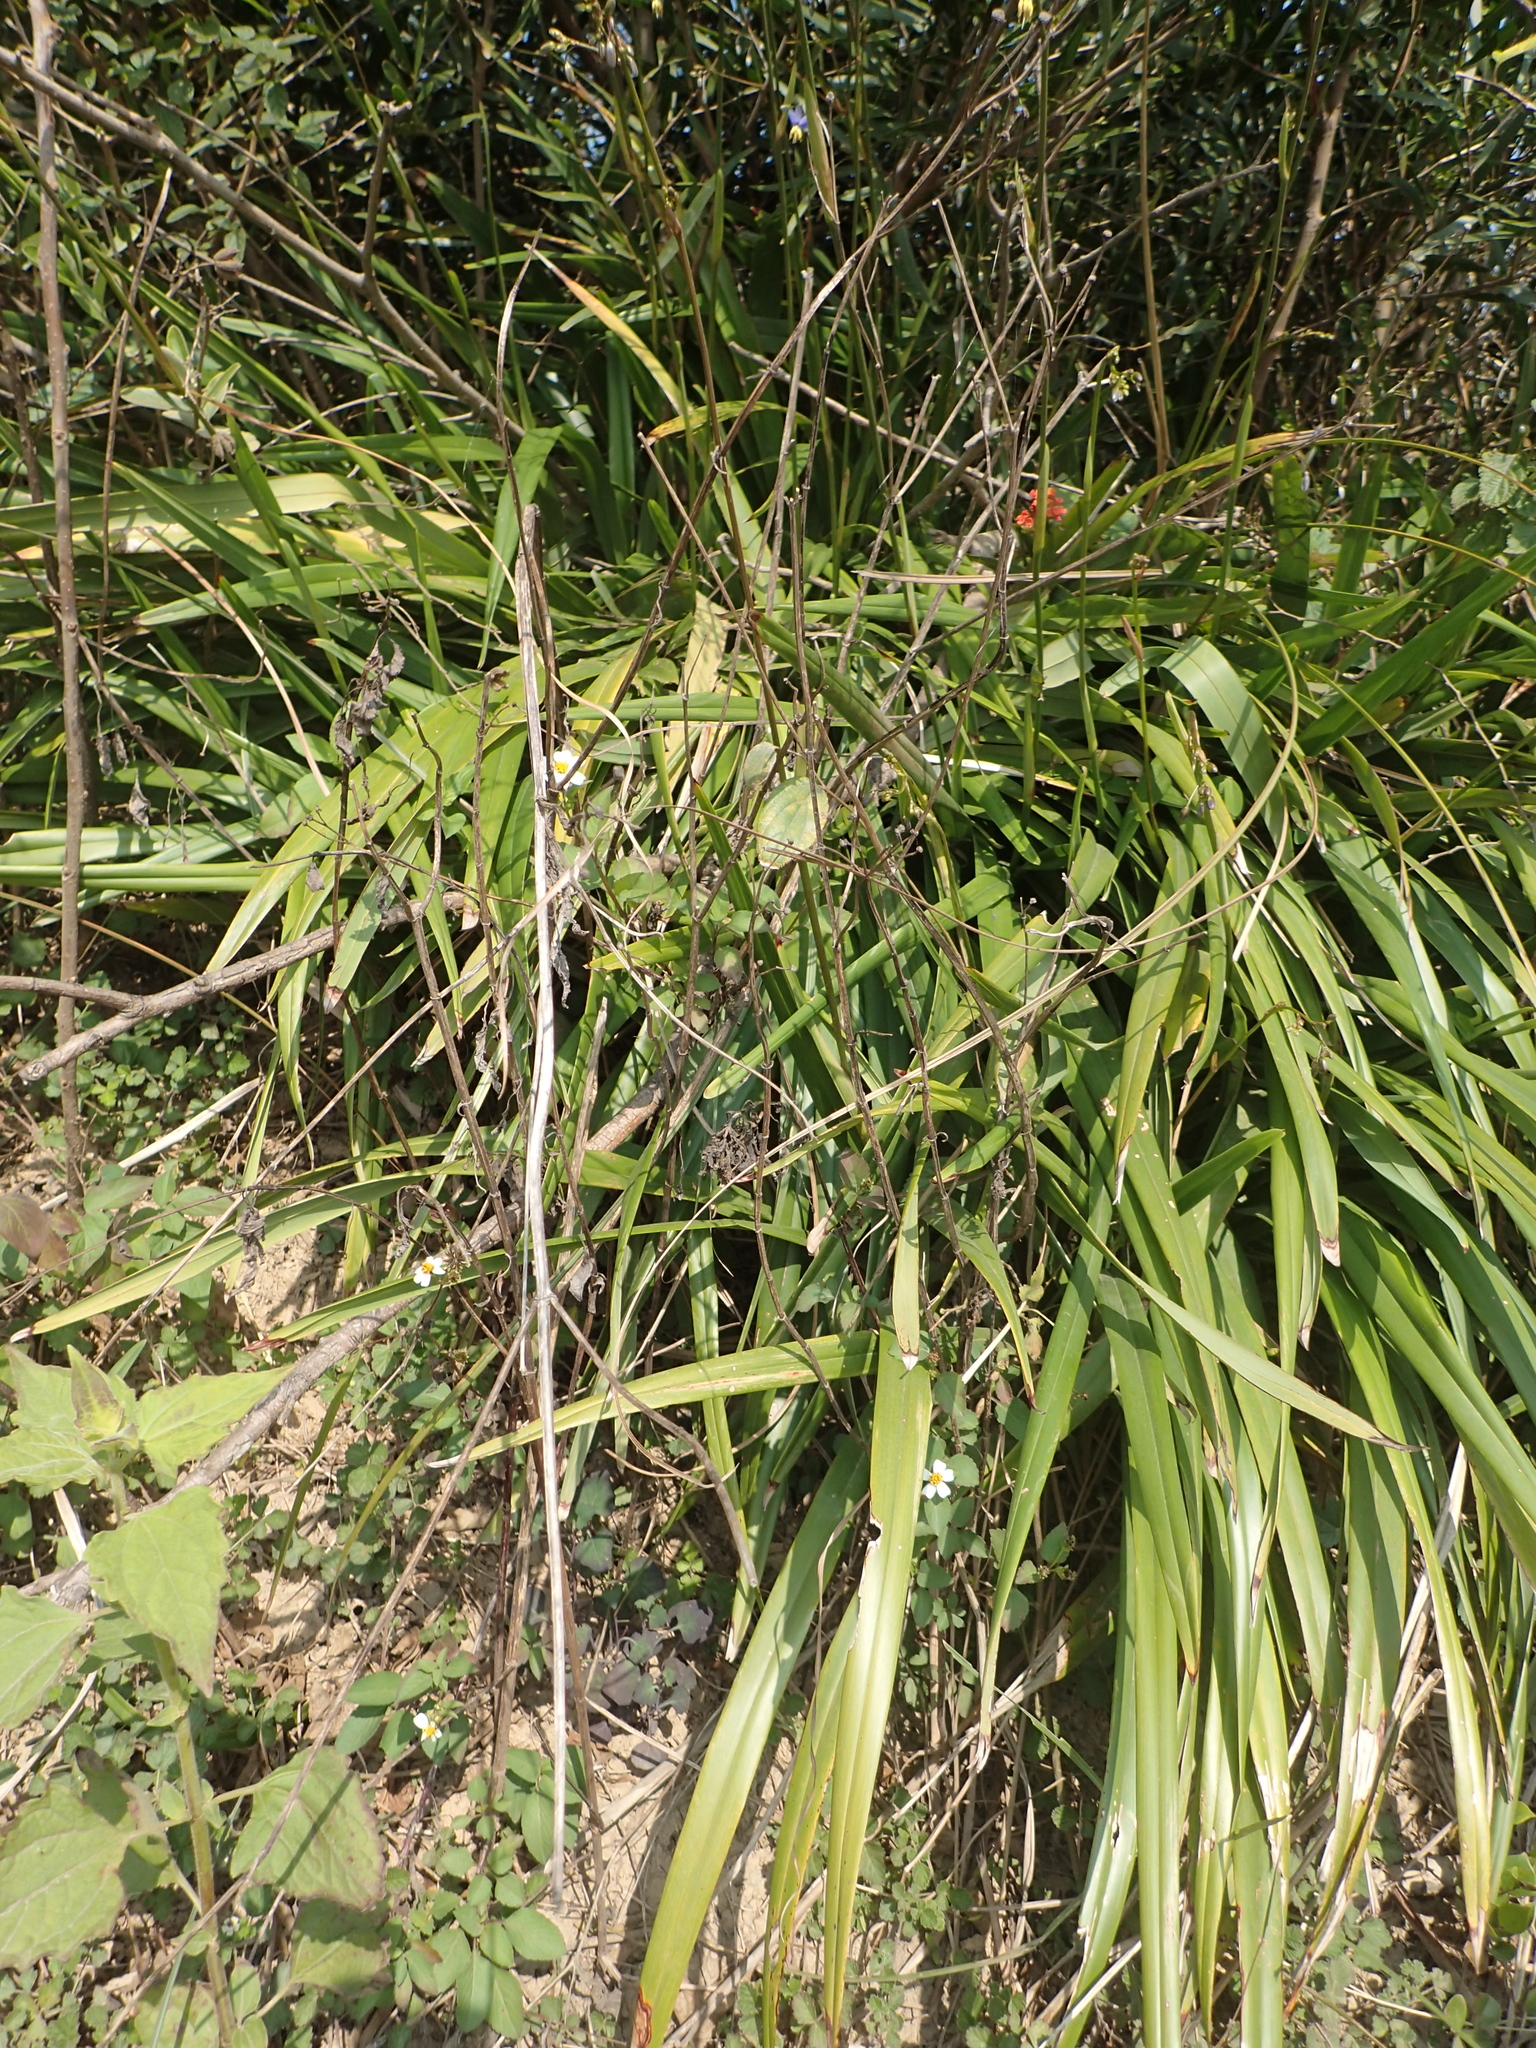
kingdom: Plantae
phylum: Tracheophyta
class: Liliopsida
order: Asparagales
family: Asphodelaceae
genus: Dianella
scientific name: Dianella ensifolia
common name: New zealand lilyplant
